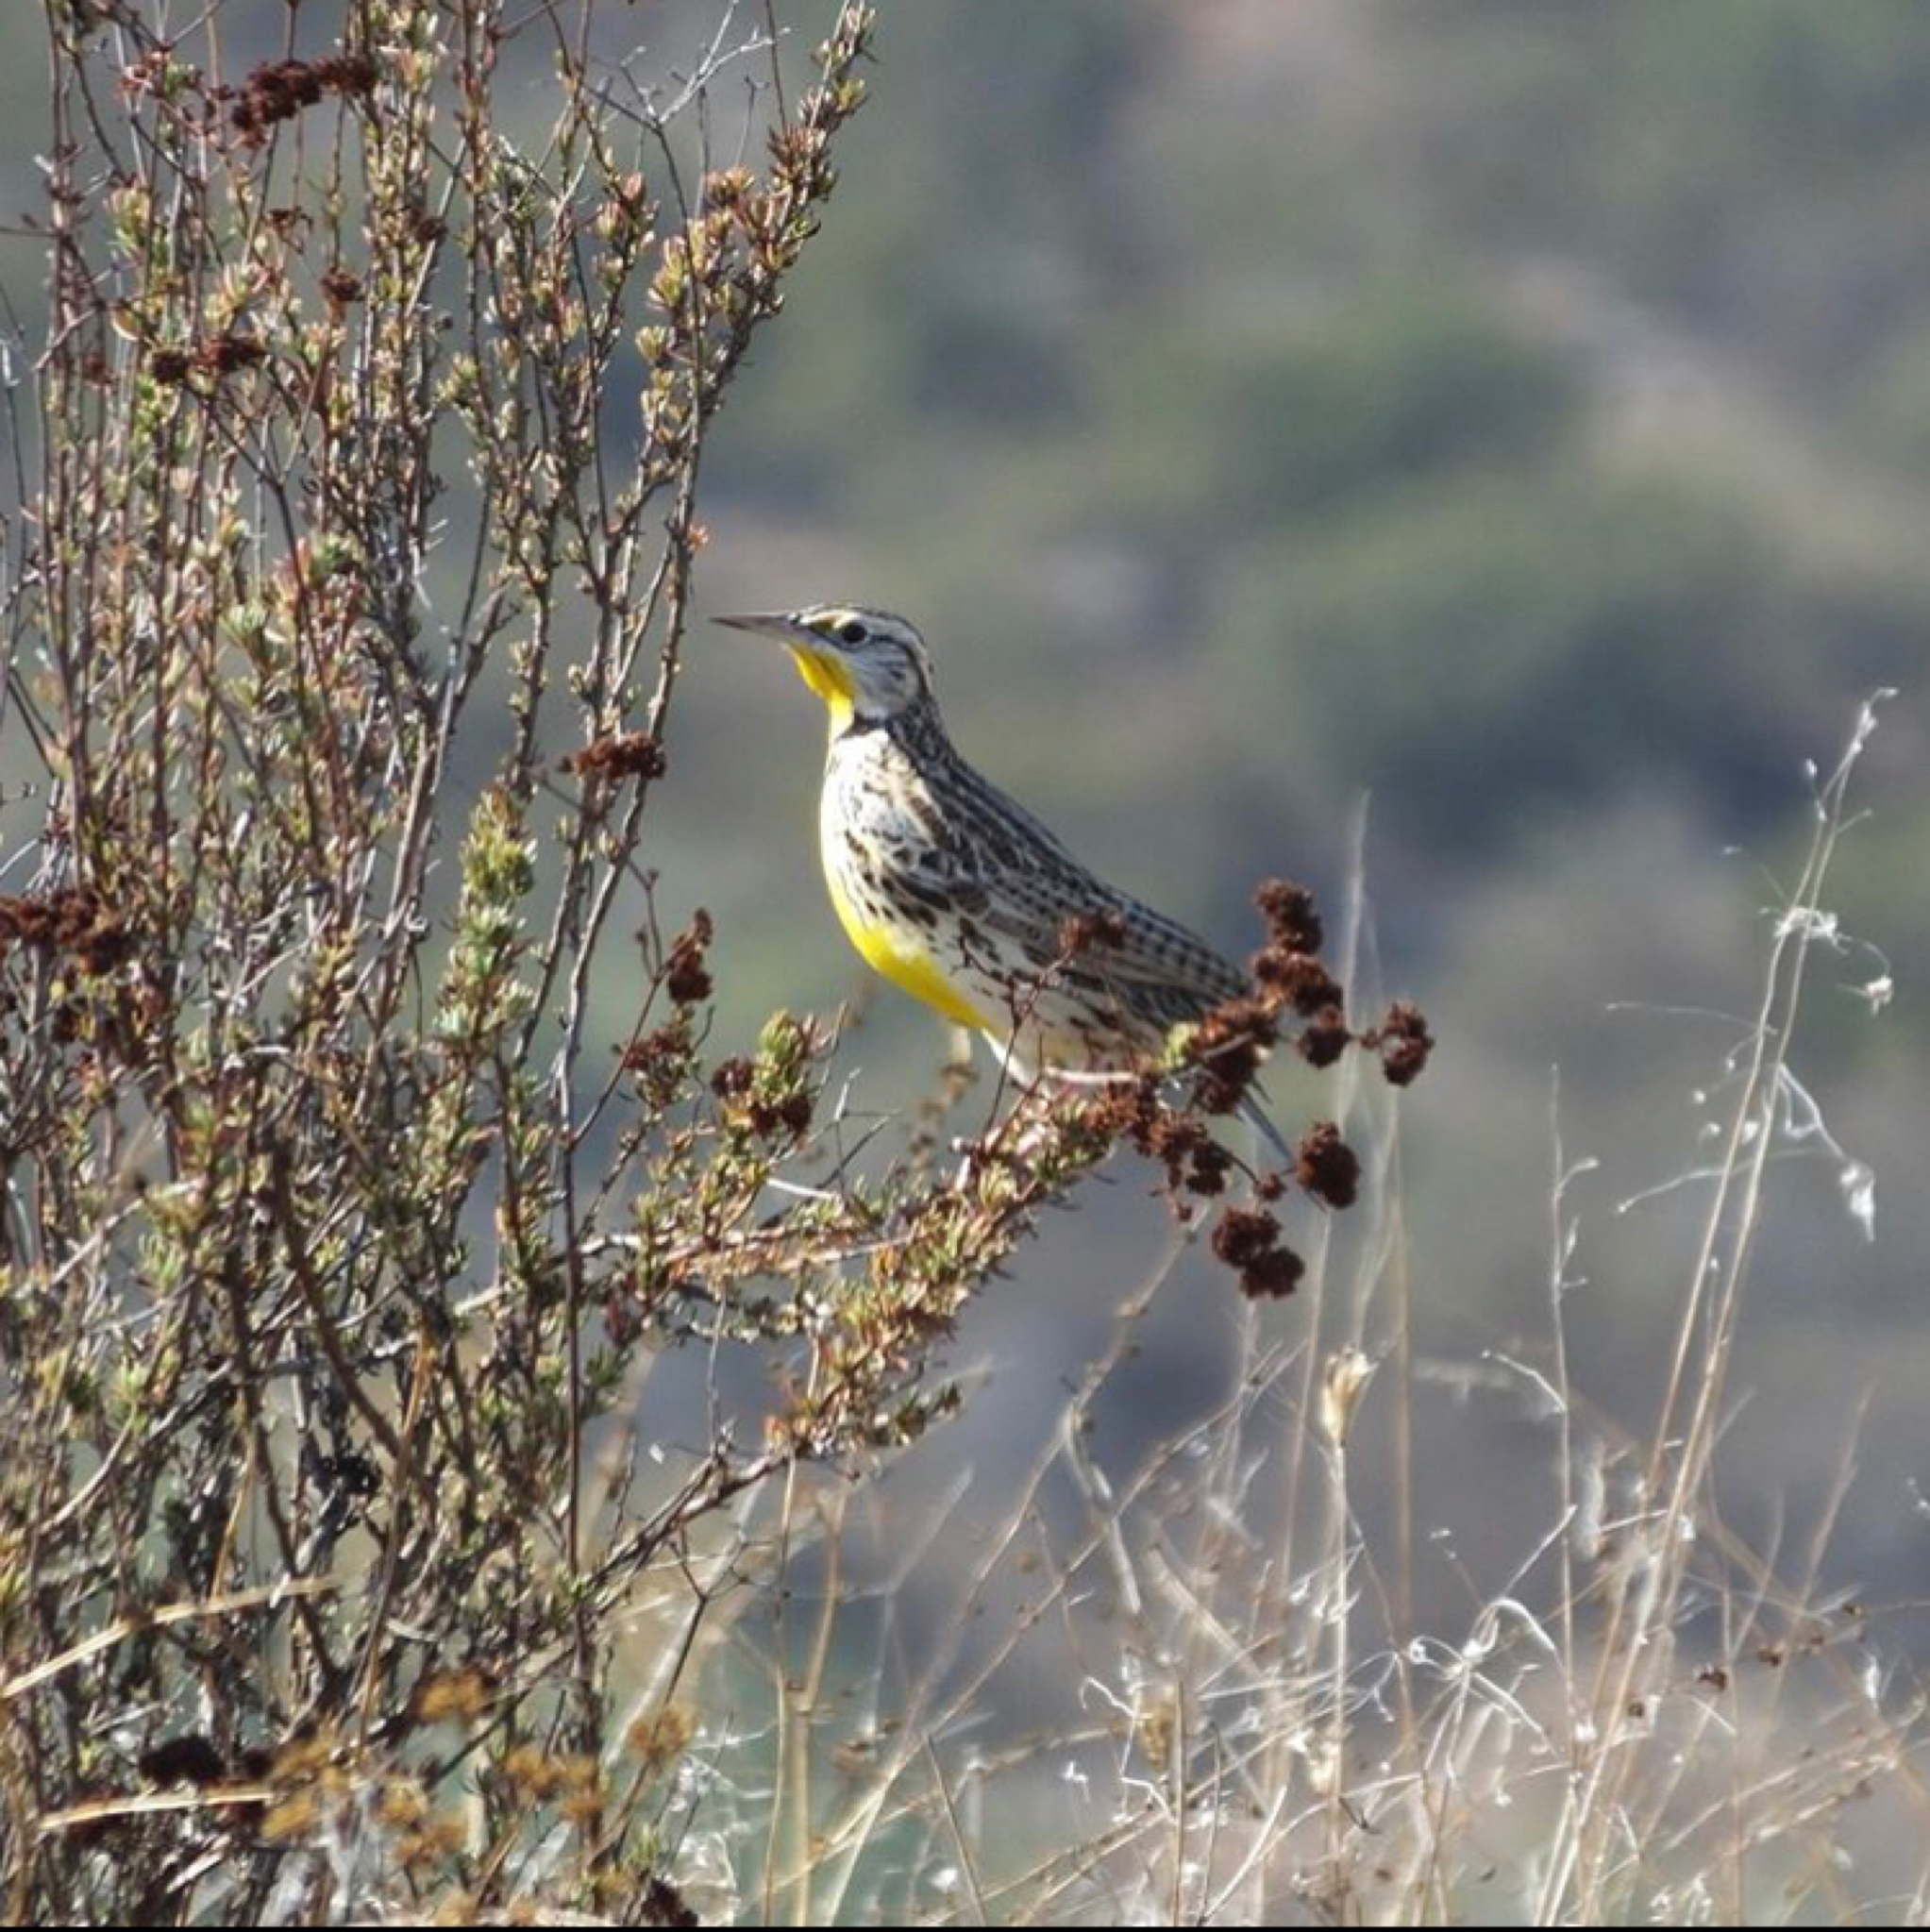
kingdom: Animalia
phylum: Chordata
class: Aves
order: Passeriformes
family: Icteridae
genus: Sturnella
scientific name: Sturnella neglecta
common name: Western meadowlark
